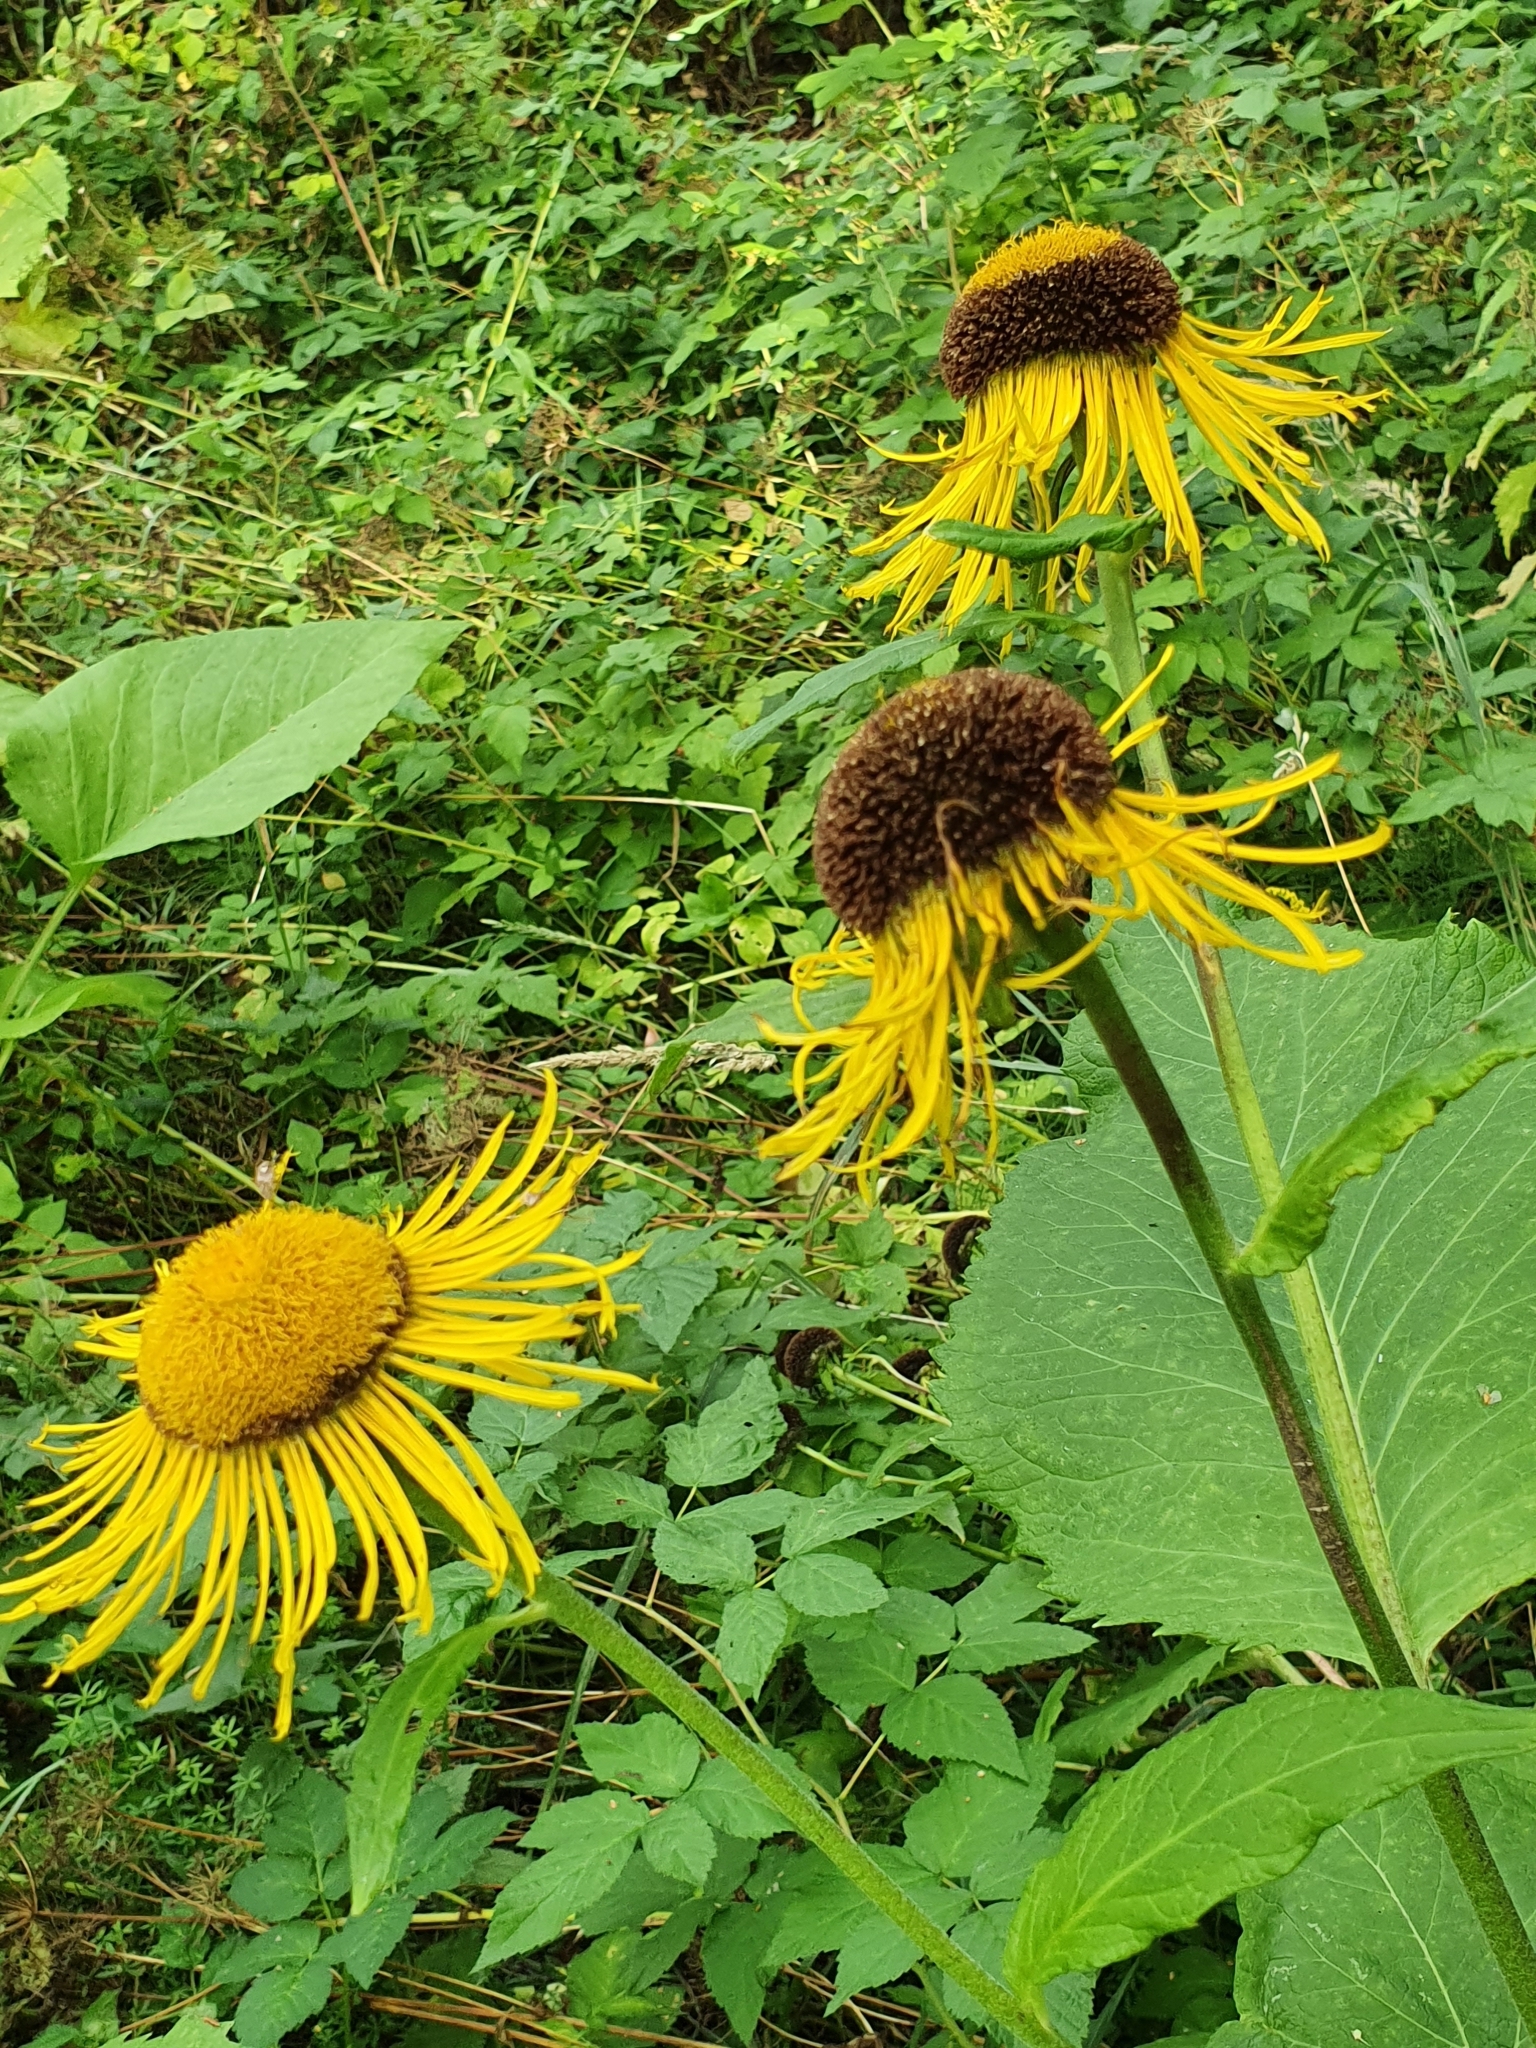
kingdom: Plantae
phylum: Tracheophyta
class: Magnoliopsida
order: Asterales
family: Asteraceae
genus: Telekia
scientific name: Telekia speciosa
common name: Yellow oxeye
